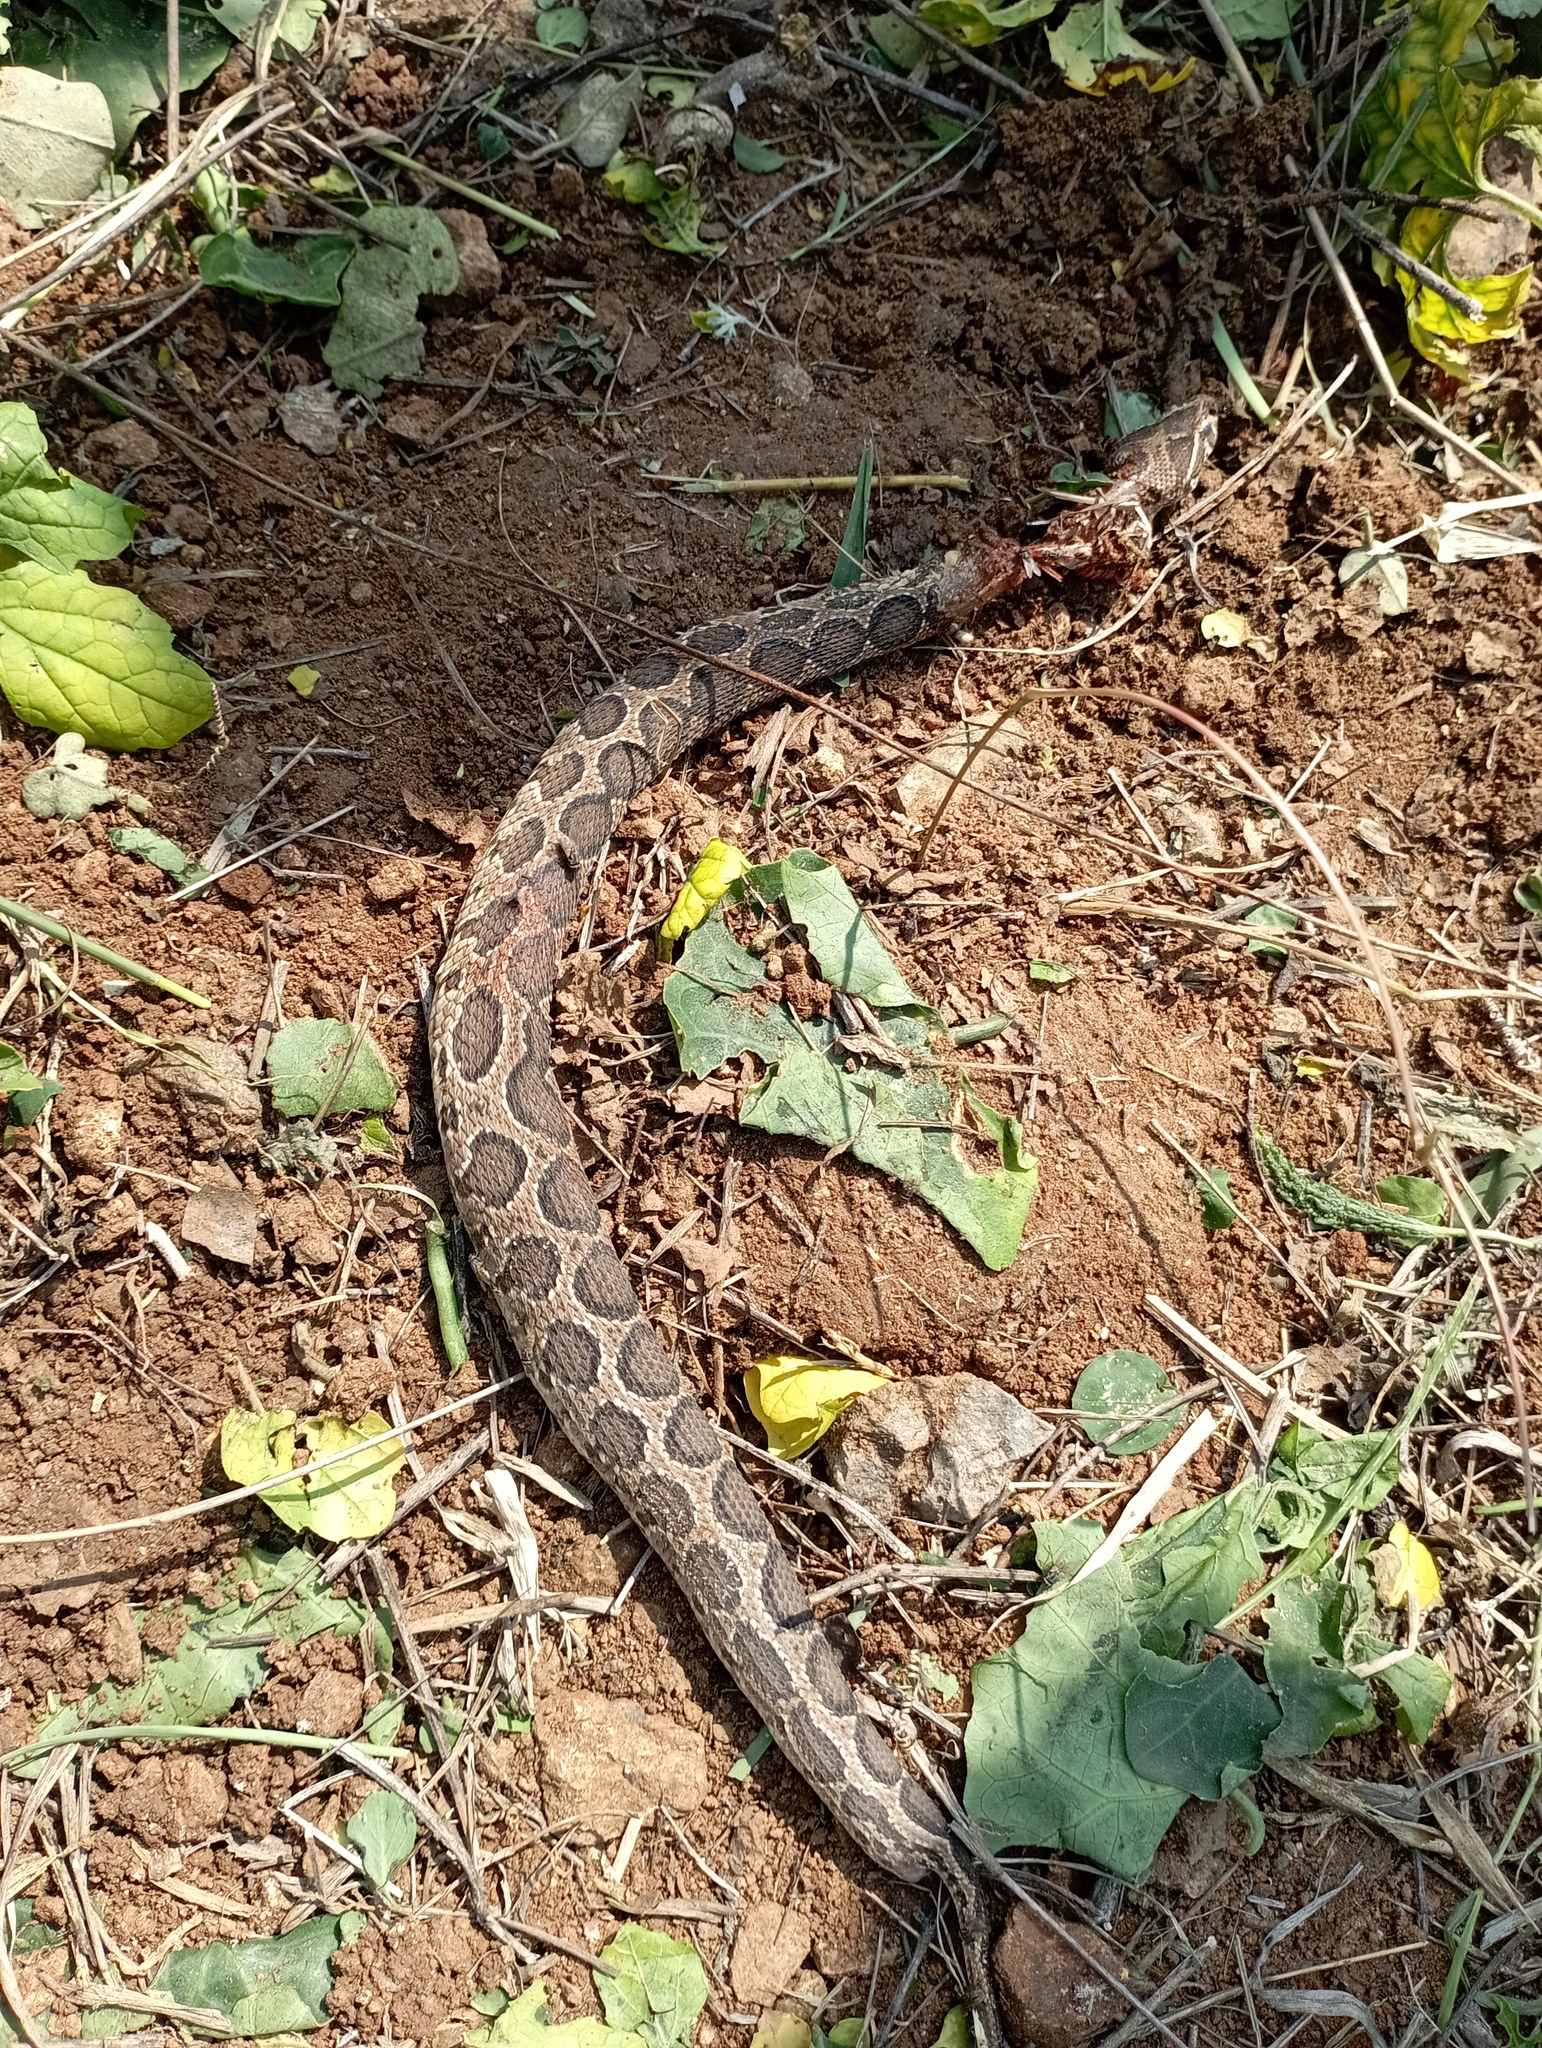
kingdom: Animalia
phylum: Chordata
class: Squamata
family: Viperidae
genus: Daboia
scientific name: Daboia russelii
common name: Western russel’s viper
